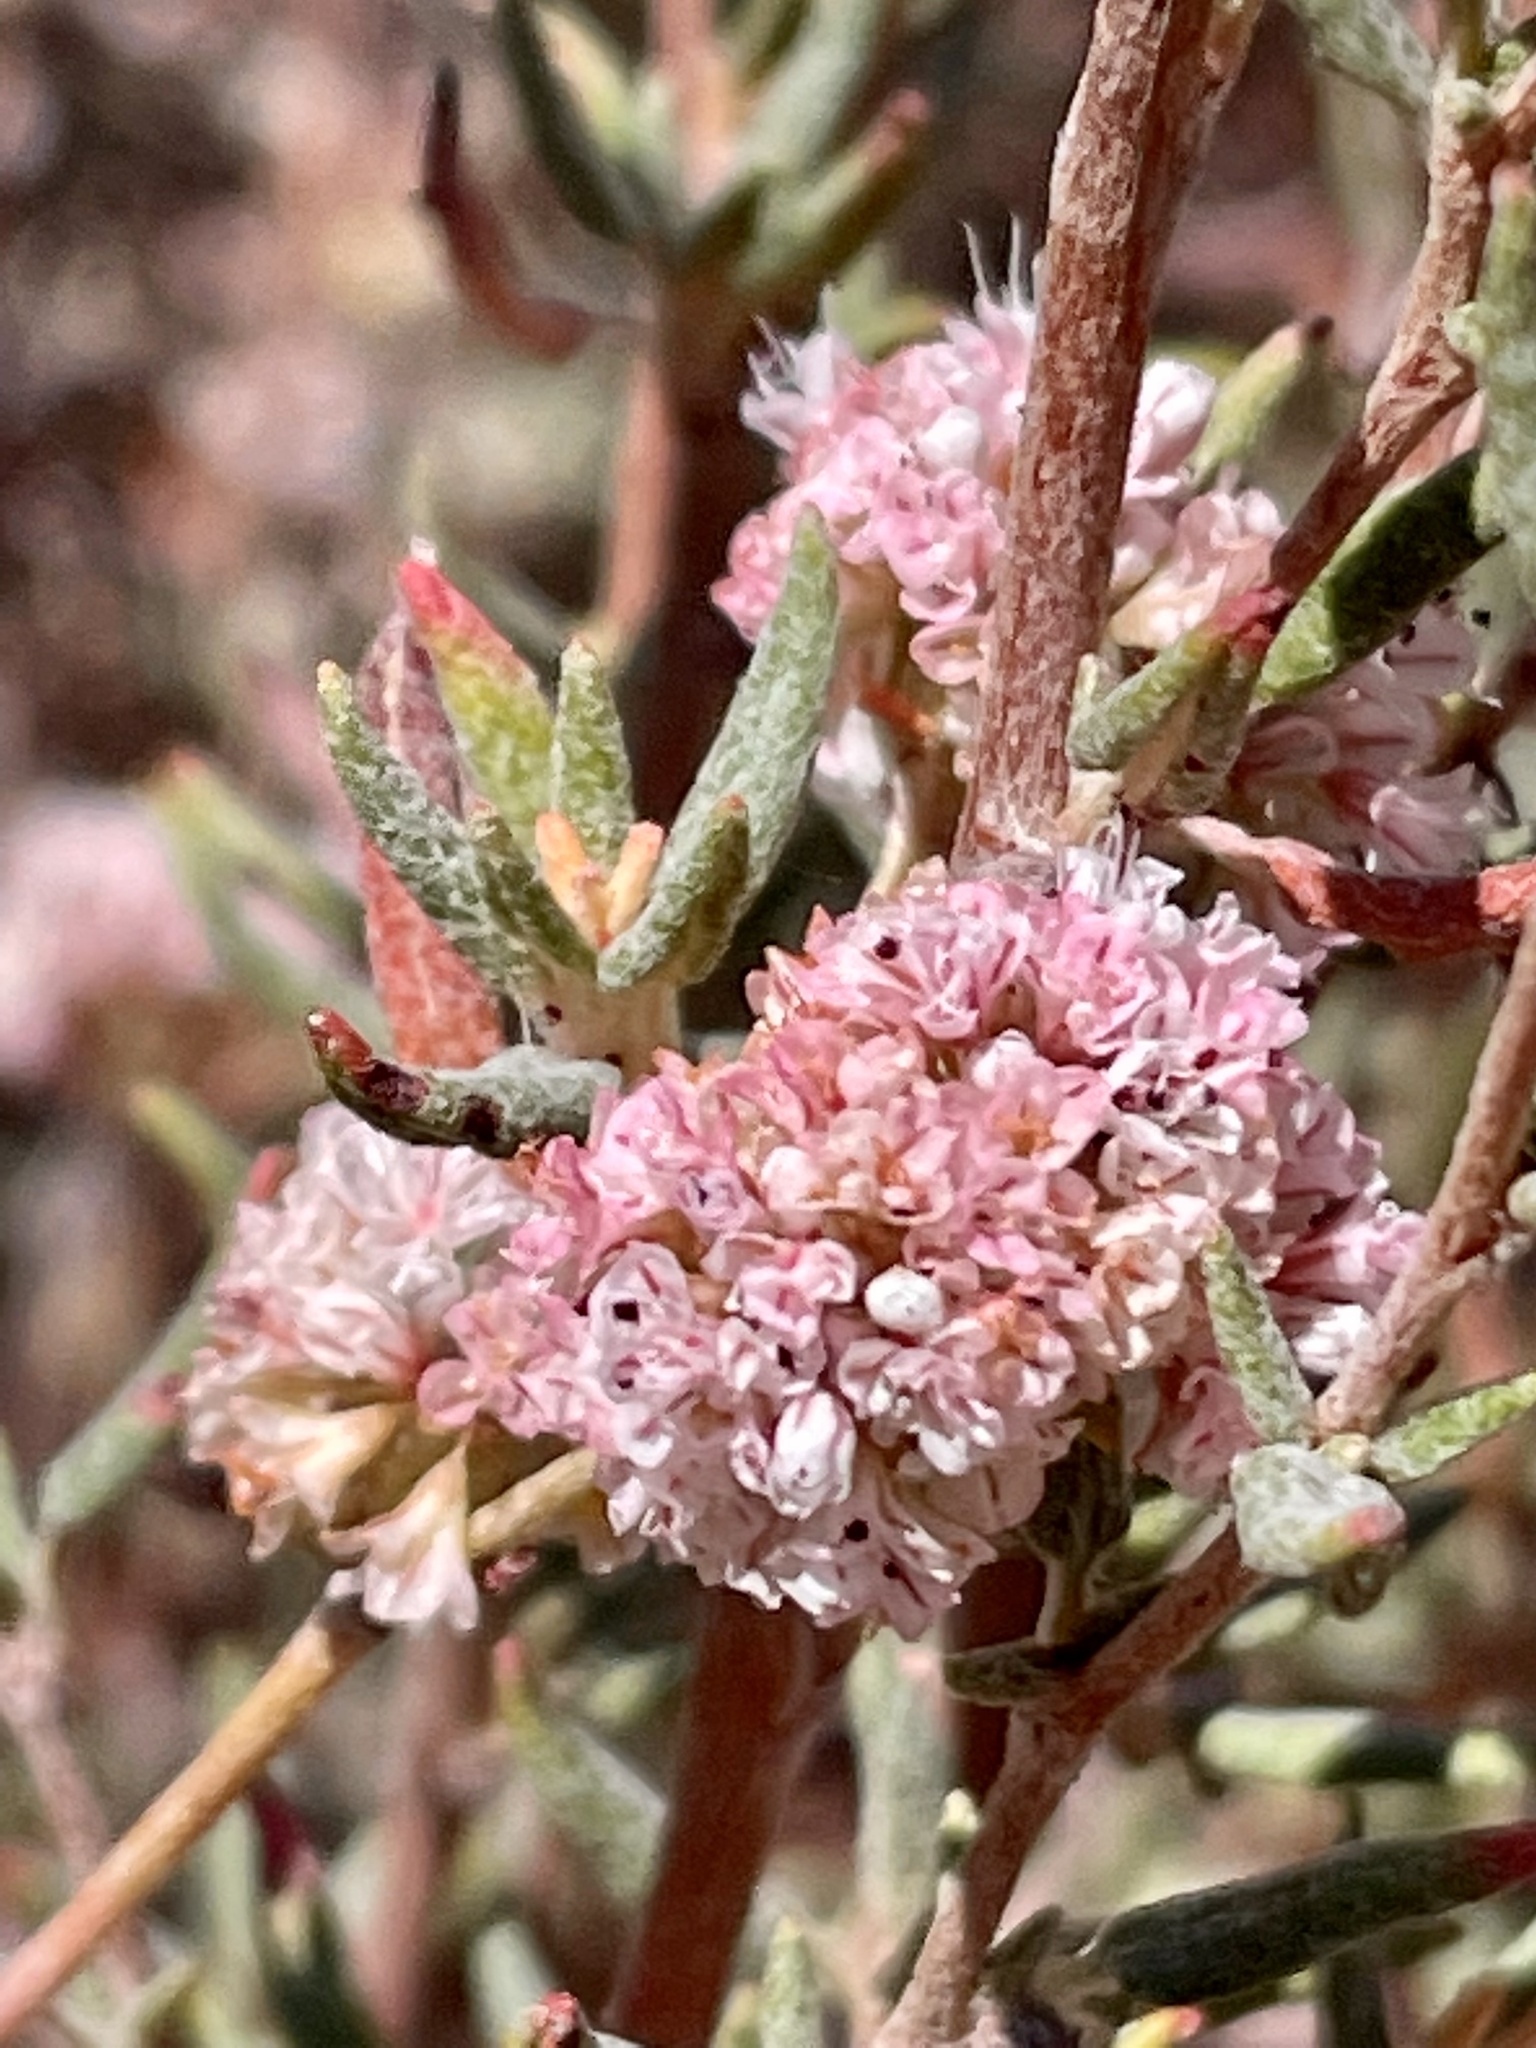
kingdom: Plantae
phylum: Tracheophyta
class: Magnoliopsida
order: Caryophyllales
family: Polygonaceae
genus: Eriogonum
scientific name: Eriogonum parvifolium
